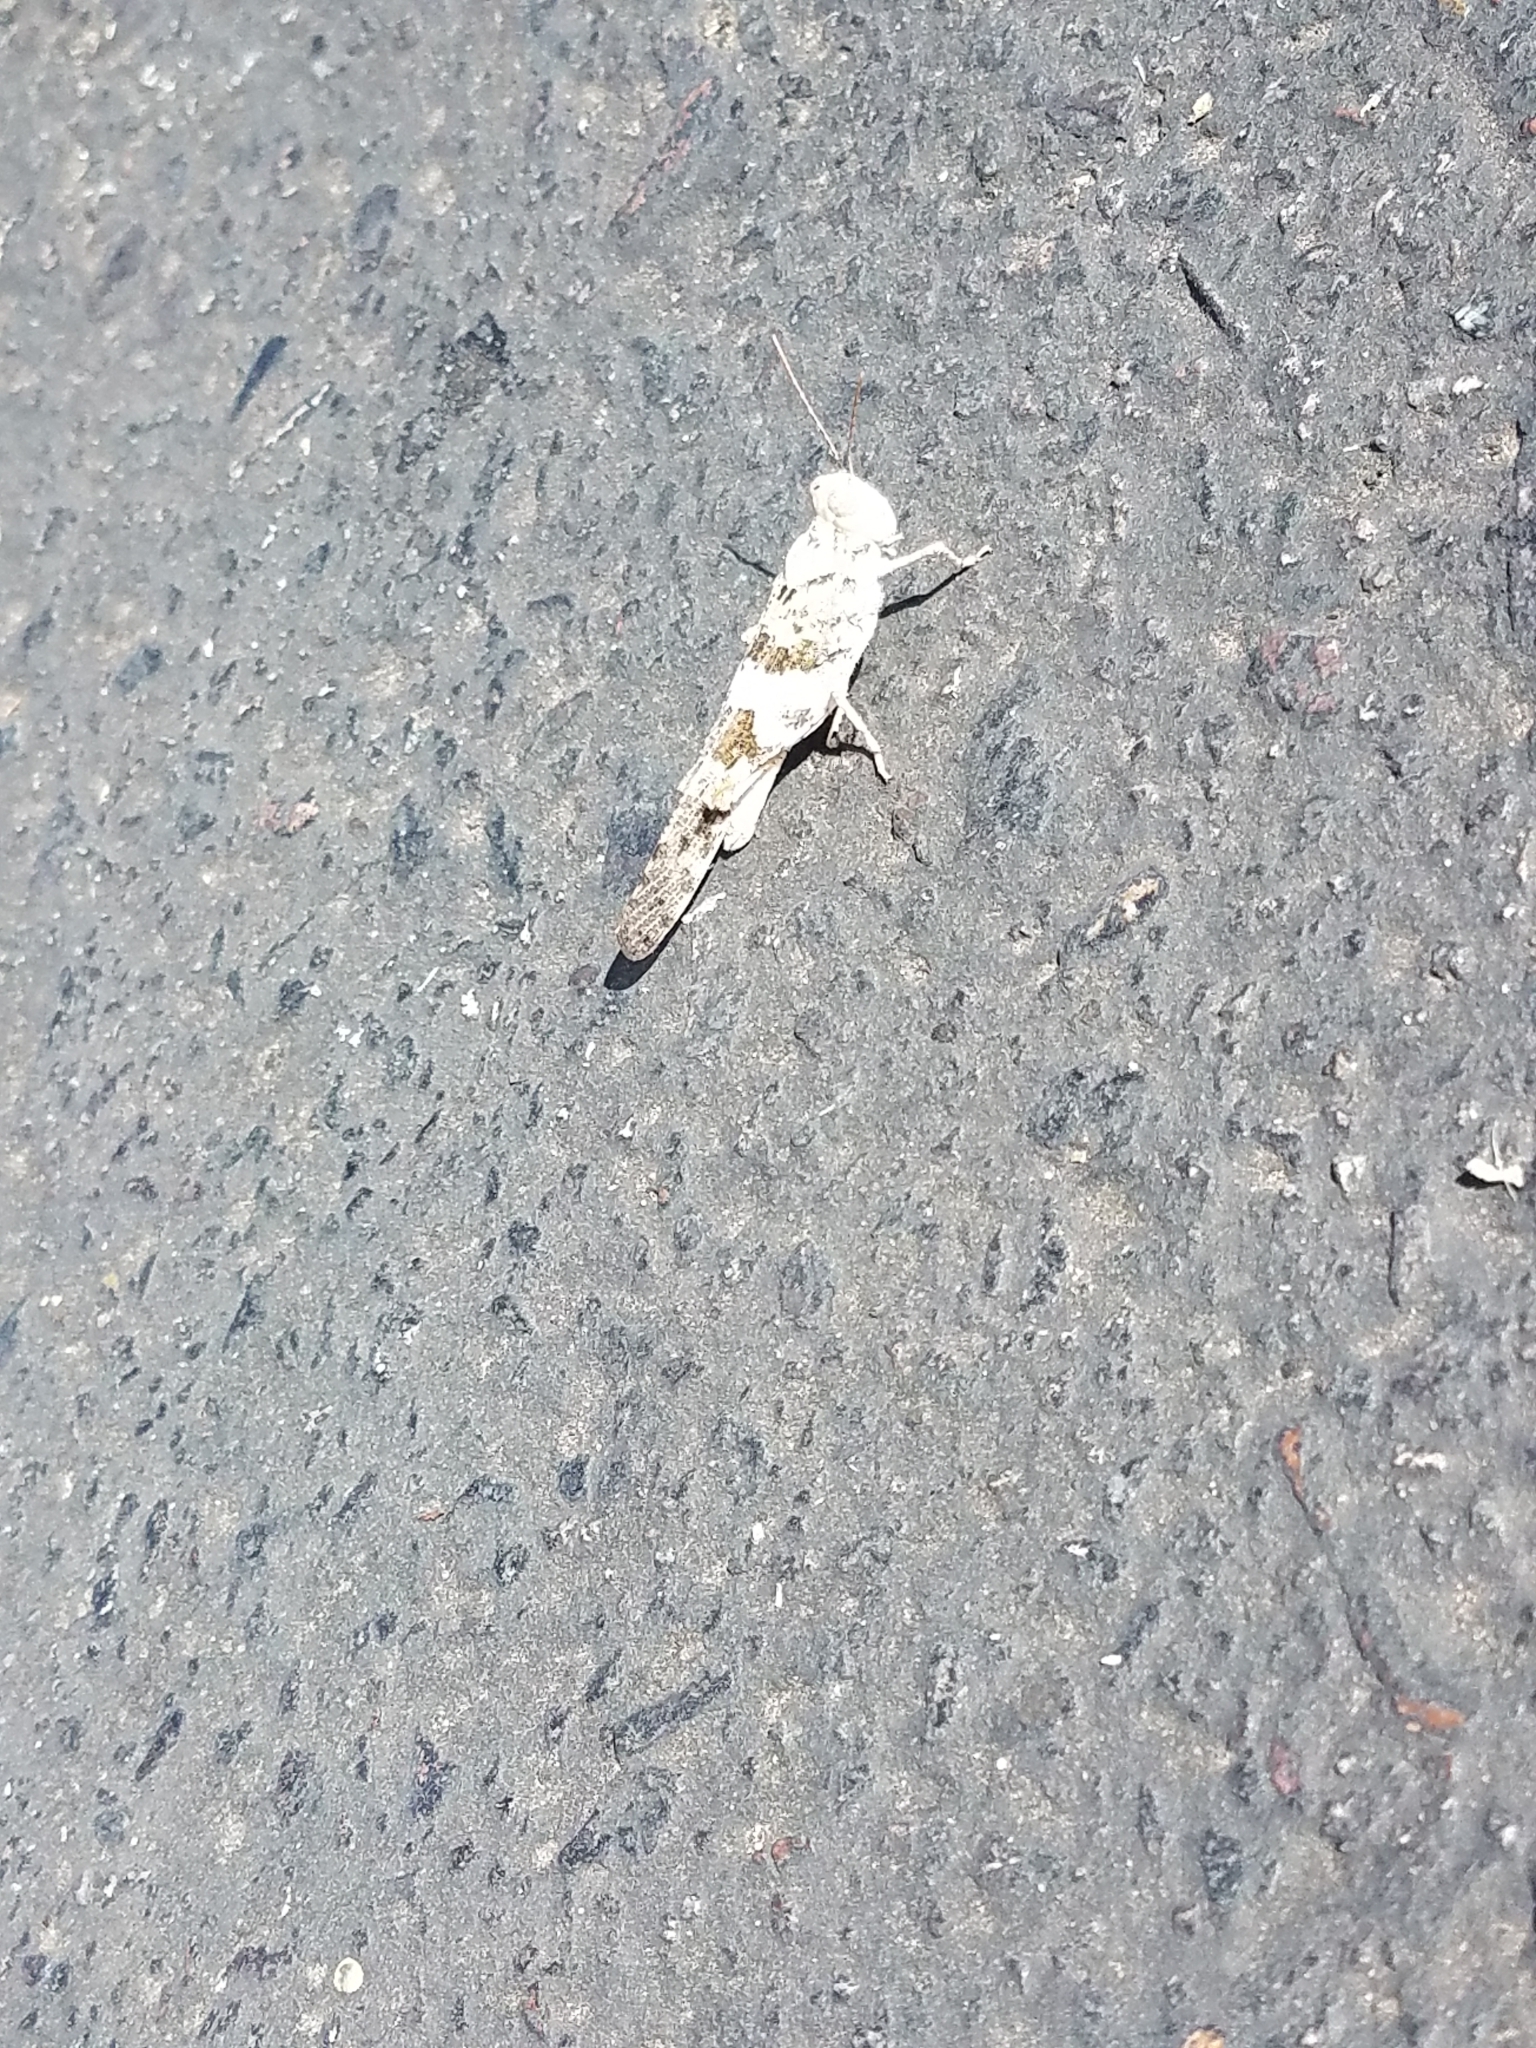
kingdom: Animalia
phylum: Arthropoda
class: Insecta
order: Orthoptera
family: Acrididae
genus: Trimerotropis
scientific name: Trimerotropis pallidipennis
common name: Pallid-winged grasshopper
